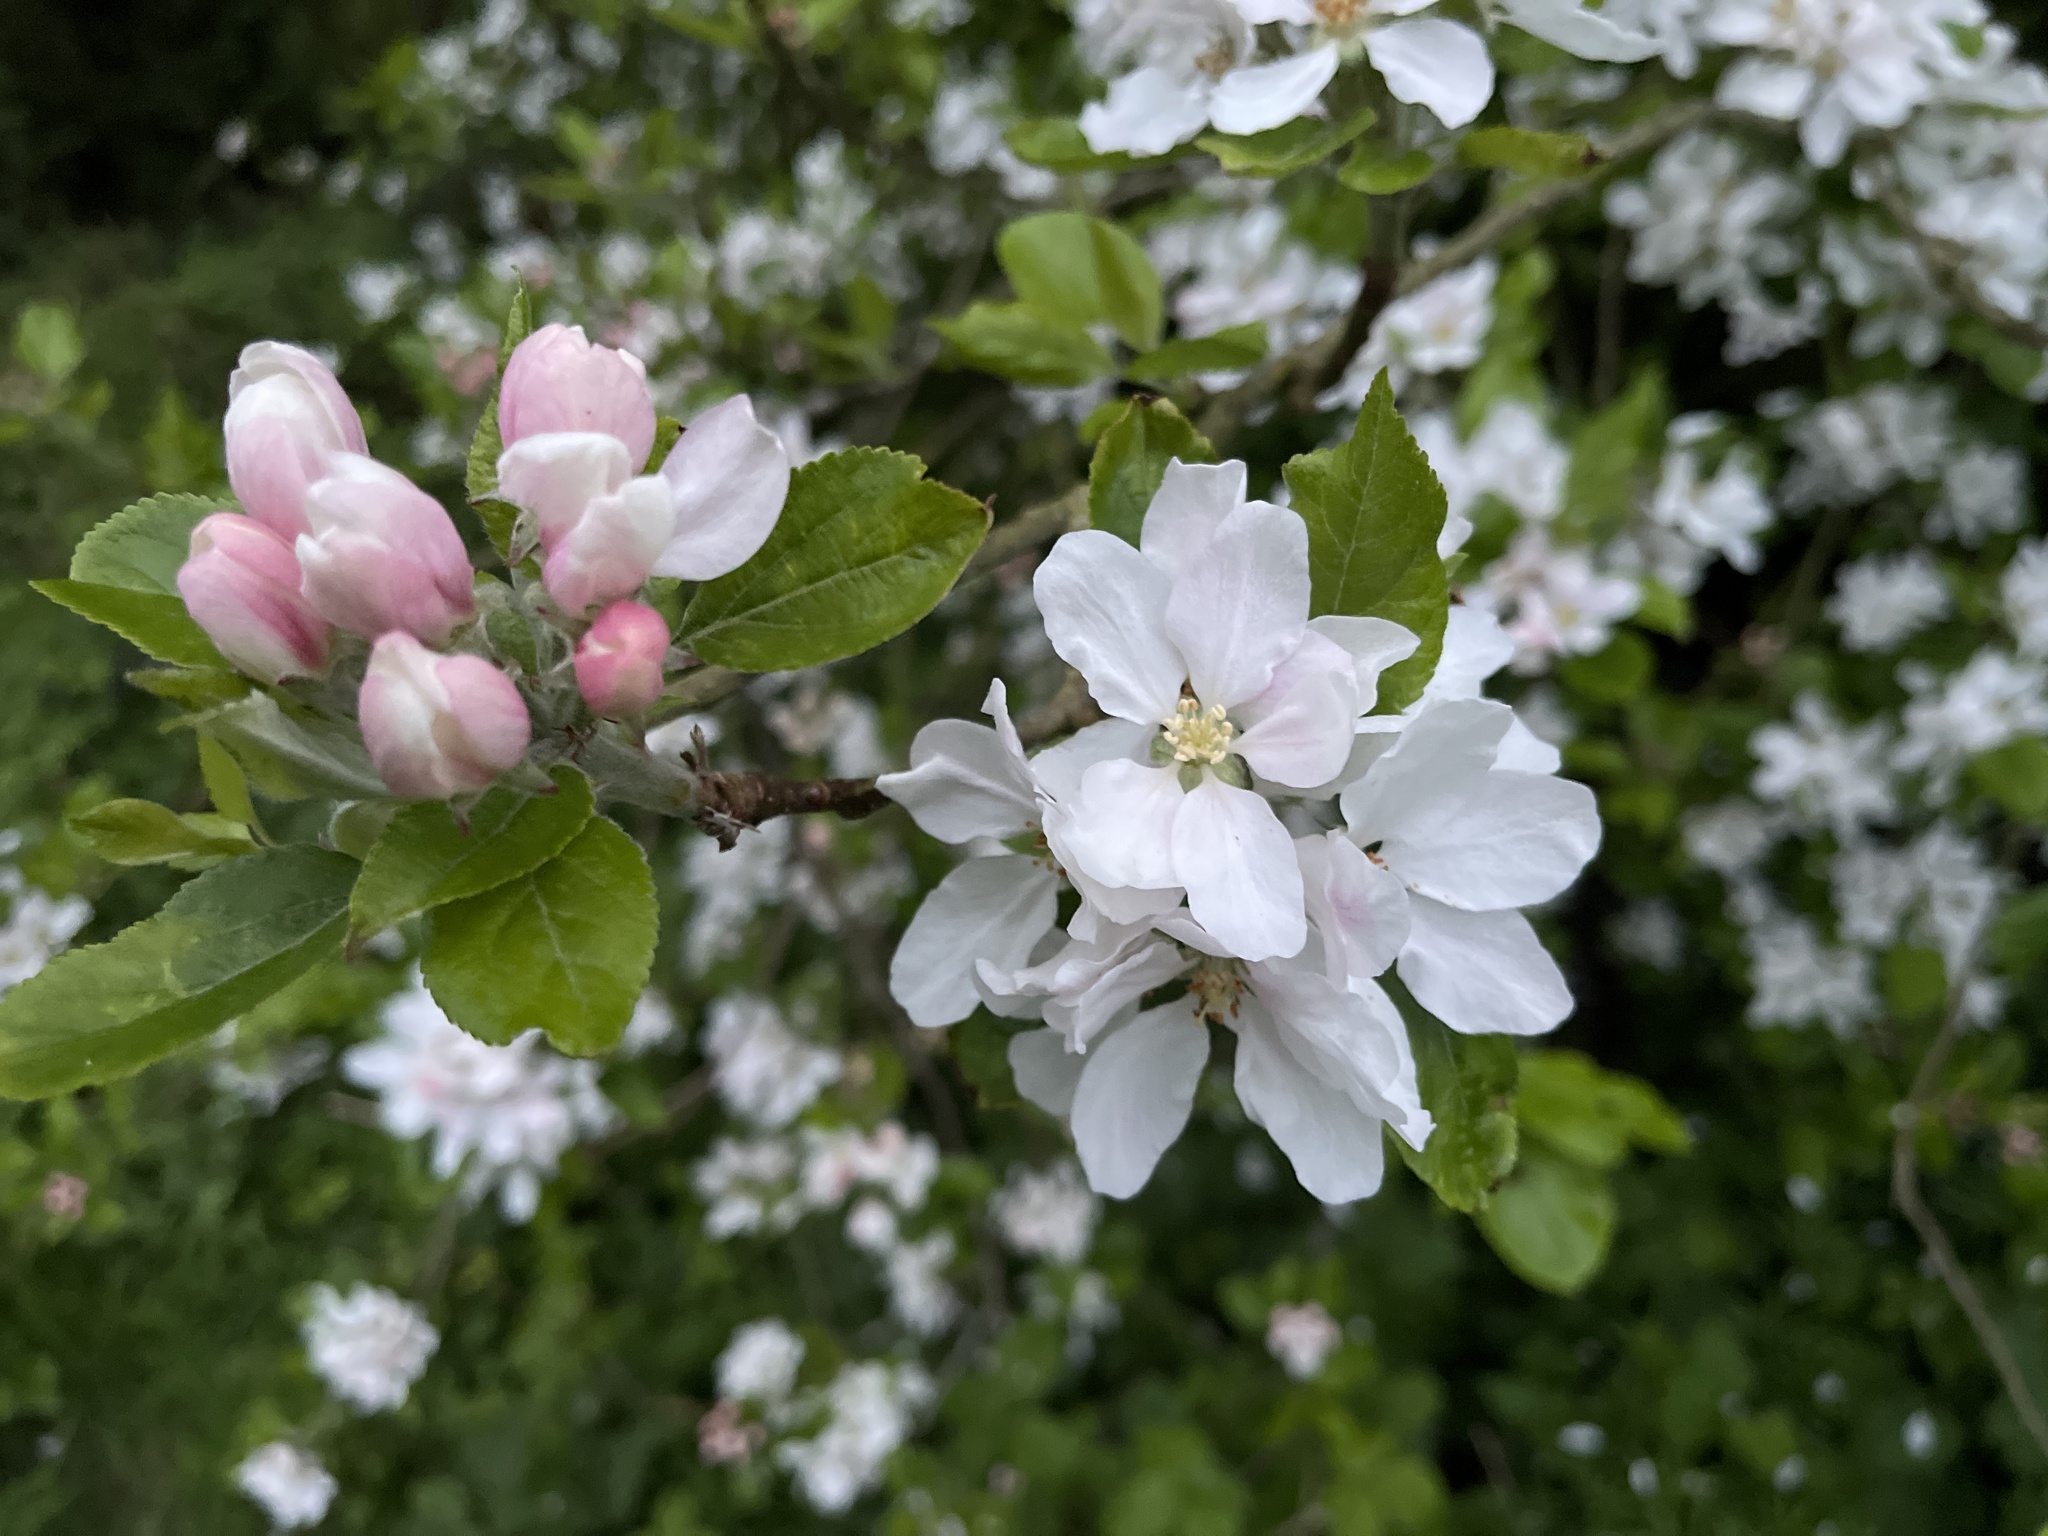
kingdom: Plantae
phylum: Tracheophyta
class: Magnoliopsida
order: Rosales
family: Rosaceae
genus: Malus
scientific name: Malus domestica
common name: Apple
